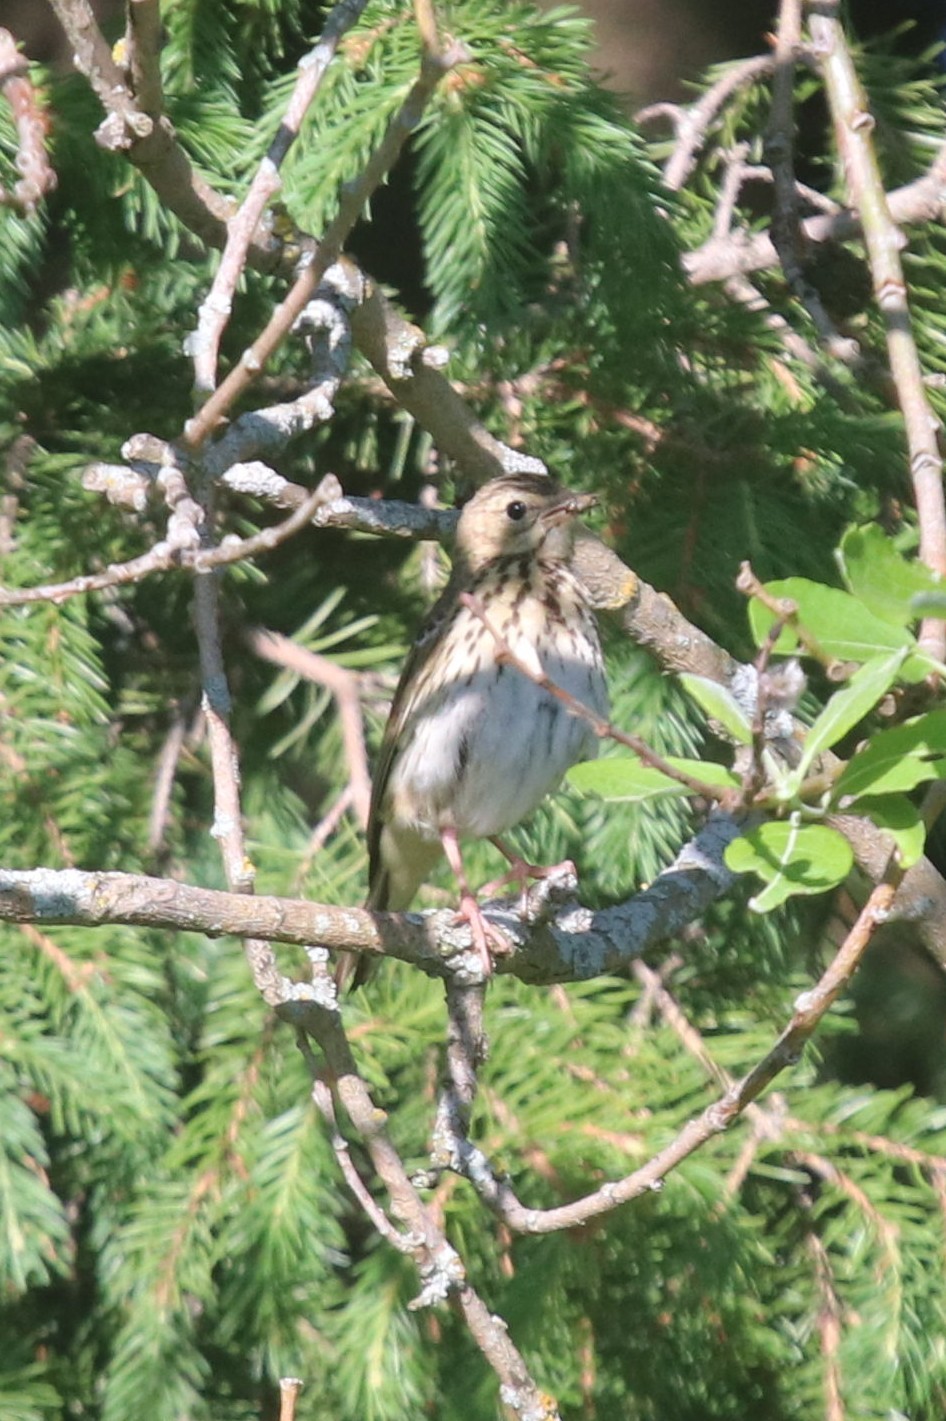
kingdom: Animalia
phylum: Chordata
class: Aves
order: Passeriformes
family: Motacillidae
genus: Anthus
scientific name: Anthus trivialis
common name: Tree pipit
